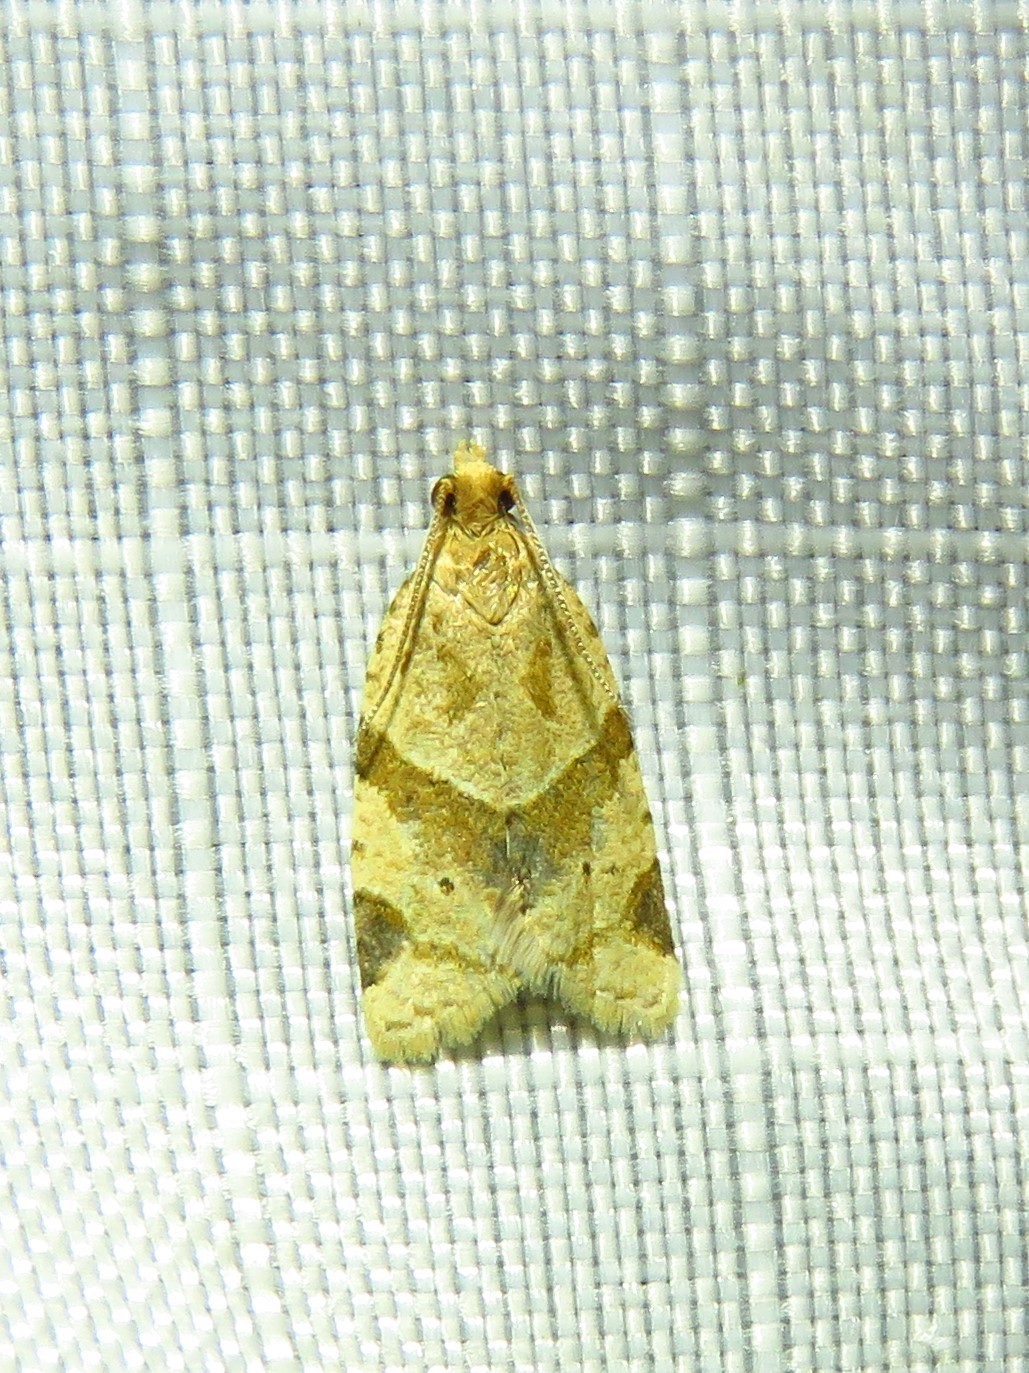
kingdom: Animalia
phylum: Arthropoda
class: Insecta
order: Lepidoptera
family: Tortricidae
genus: Clepsis
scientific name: Clepsis peritana
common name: Garden tortrix
